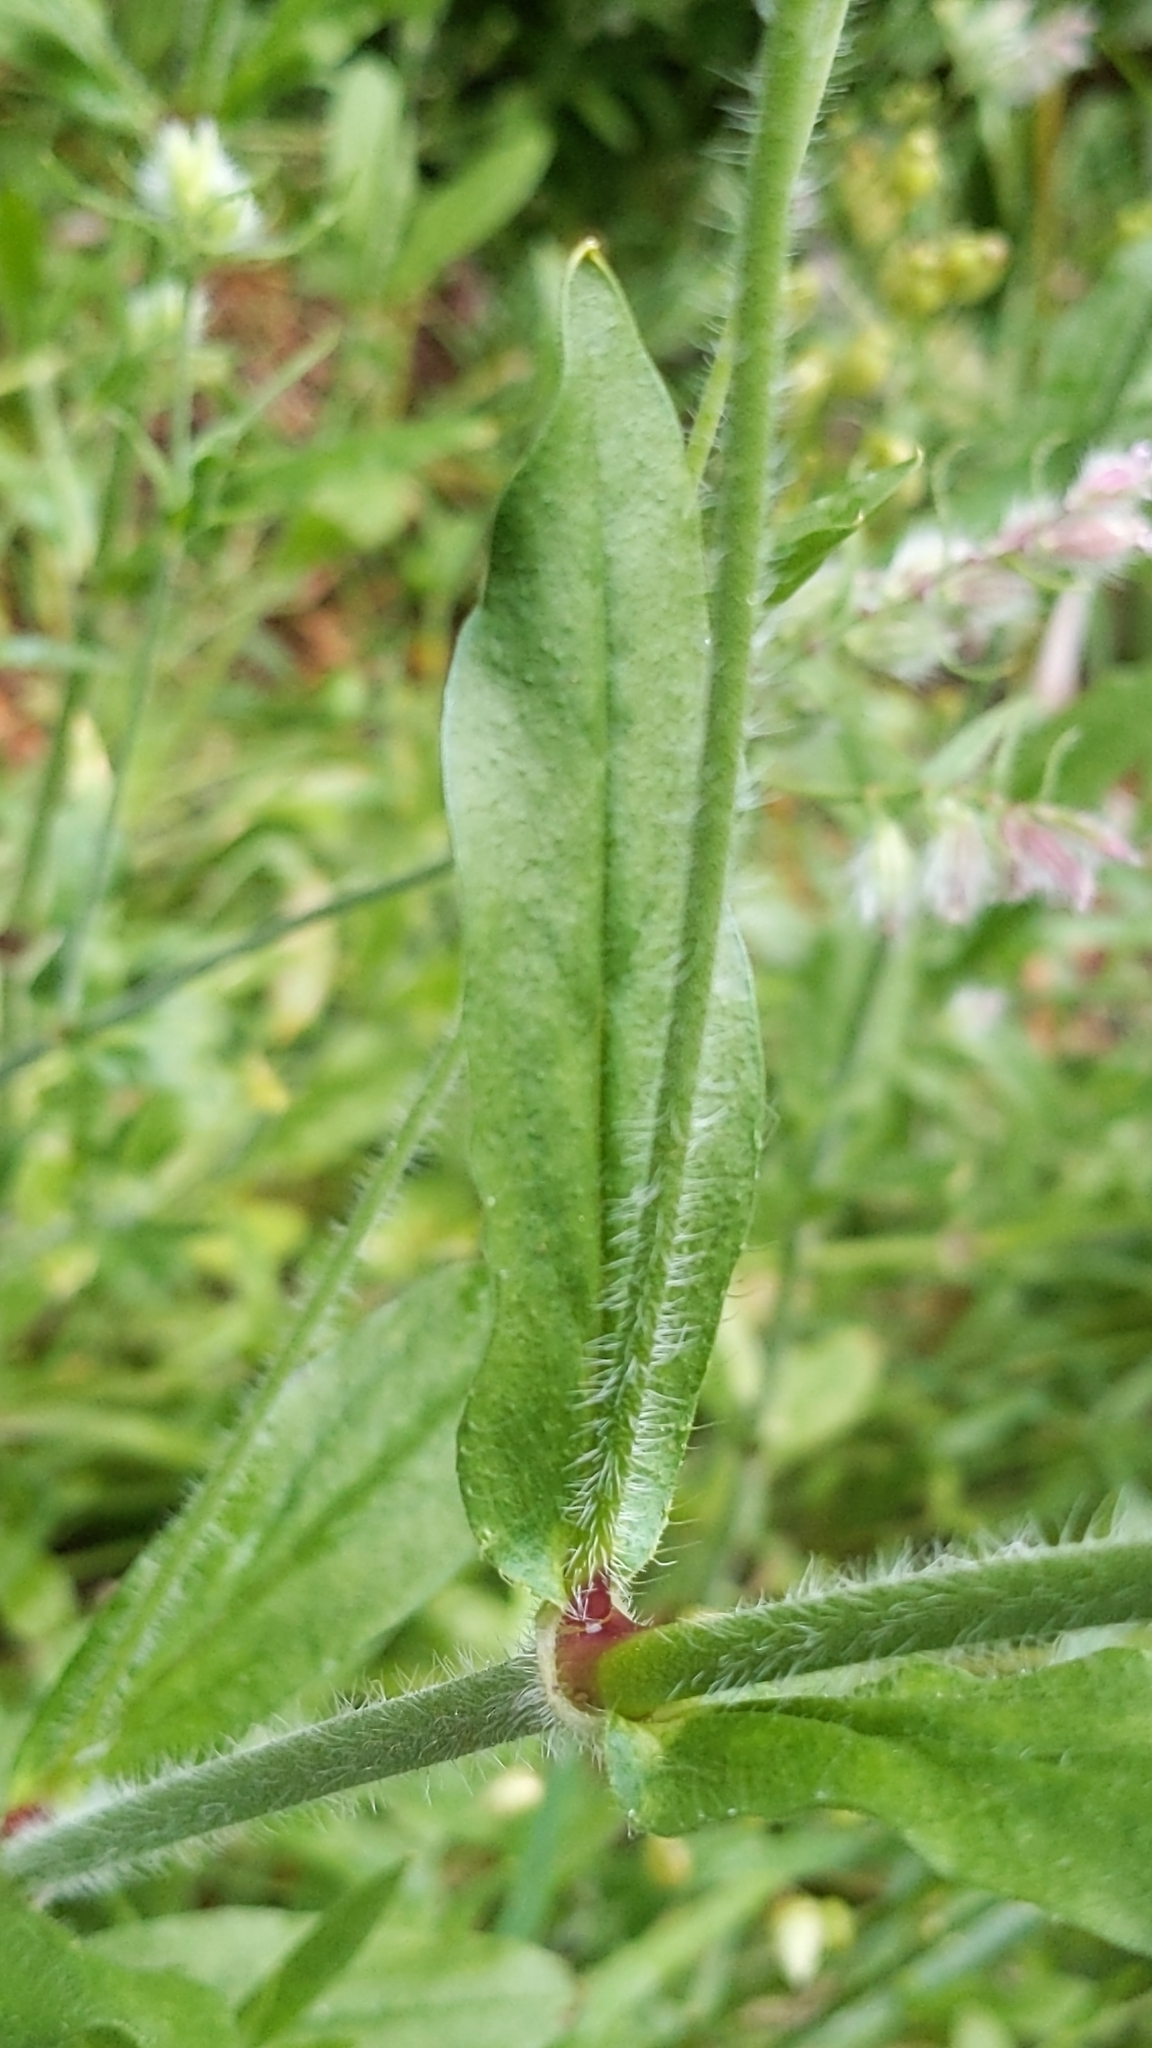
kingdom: Plantae
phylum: Tracheophyta
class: Magnoliopsida
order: Caryophyllales
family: Caryophyllaceae
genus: Silene
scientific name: Silene disticha
